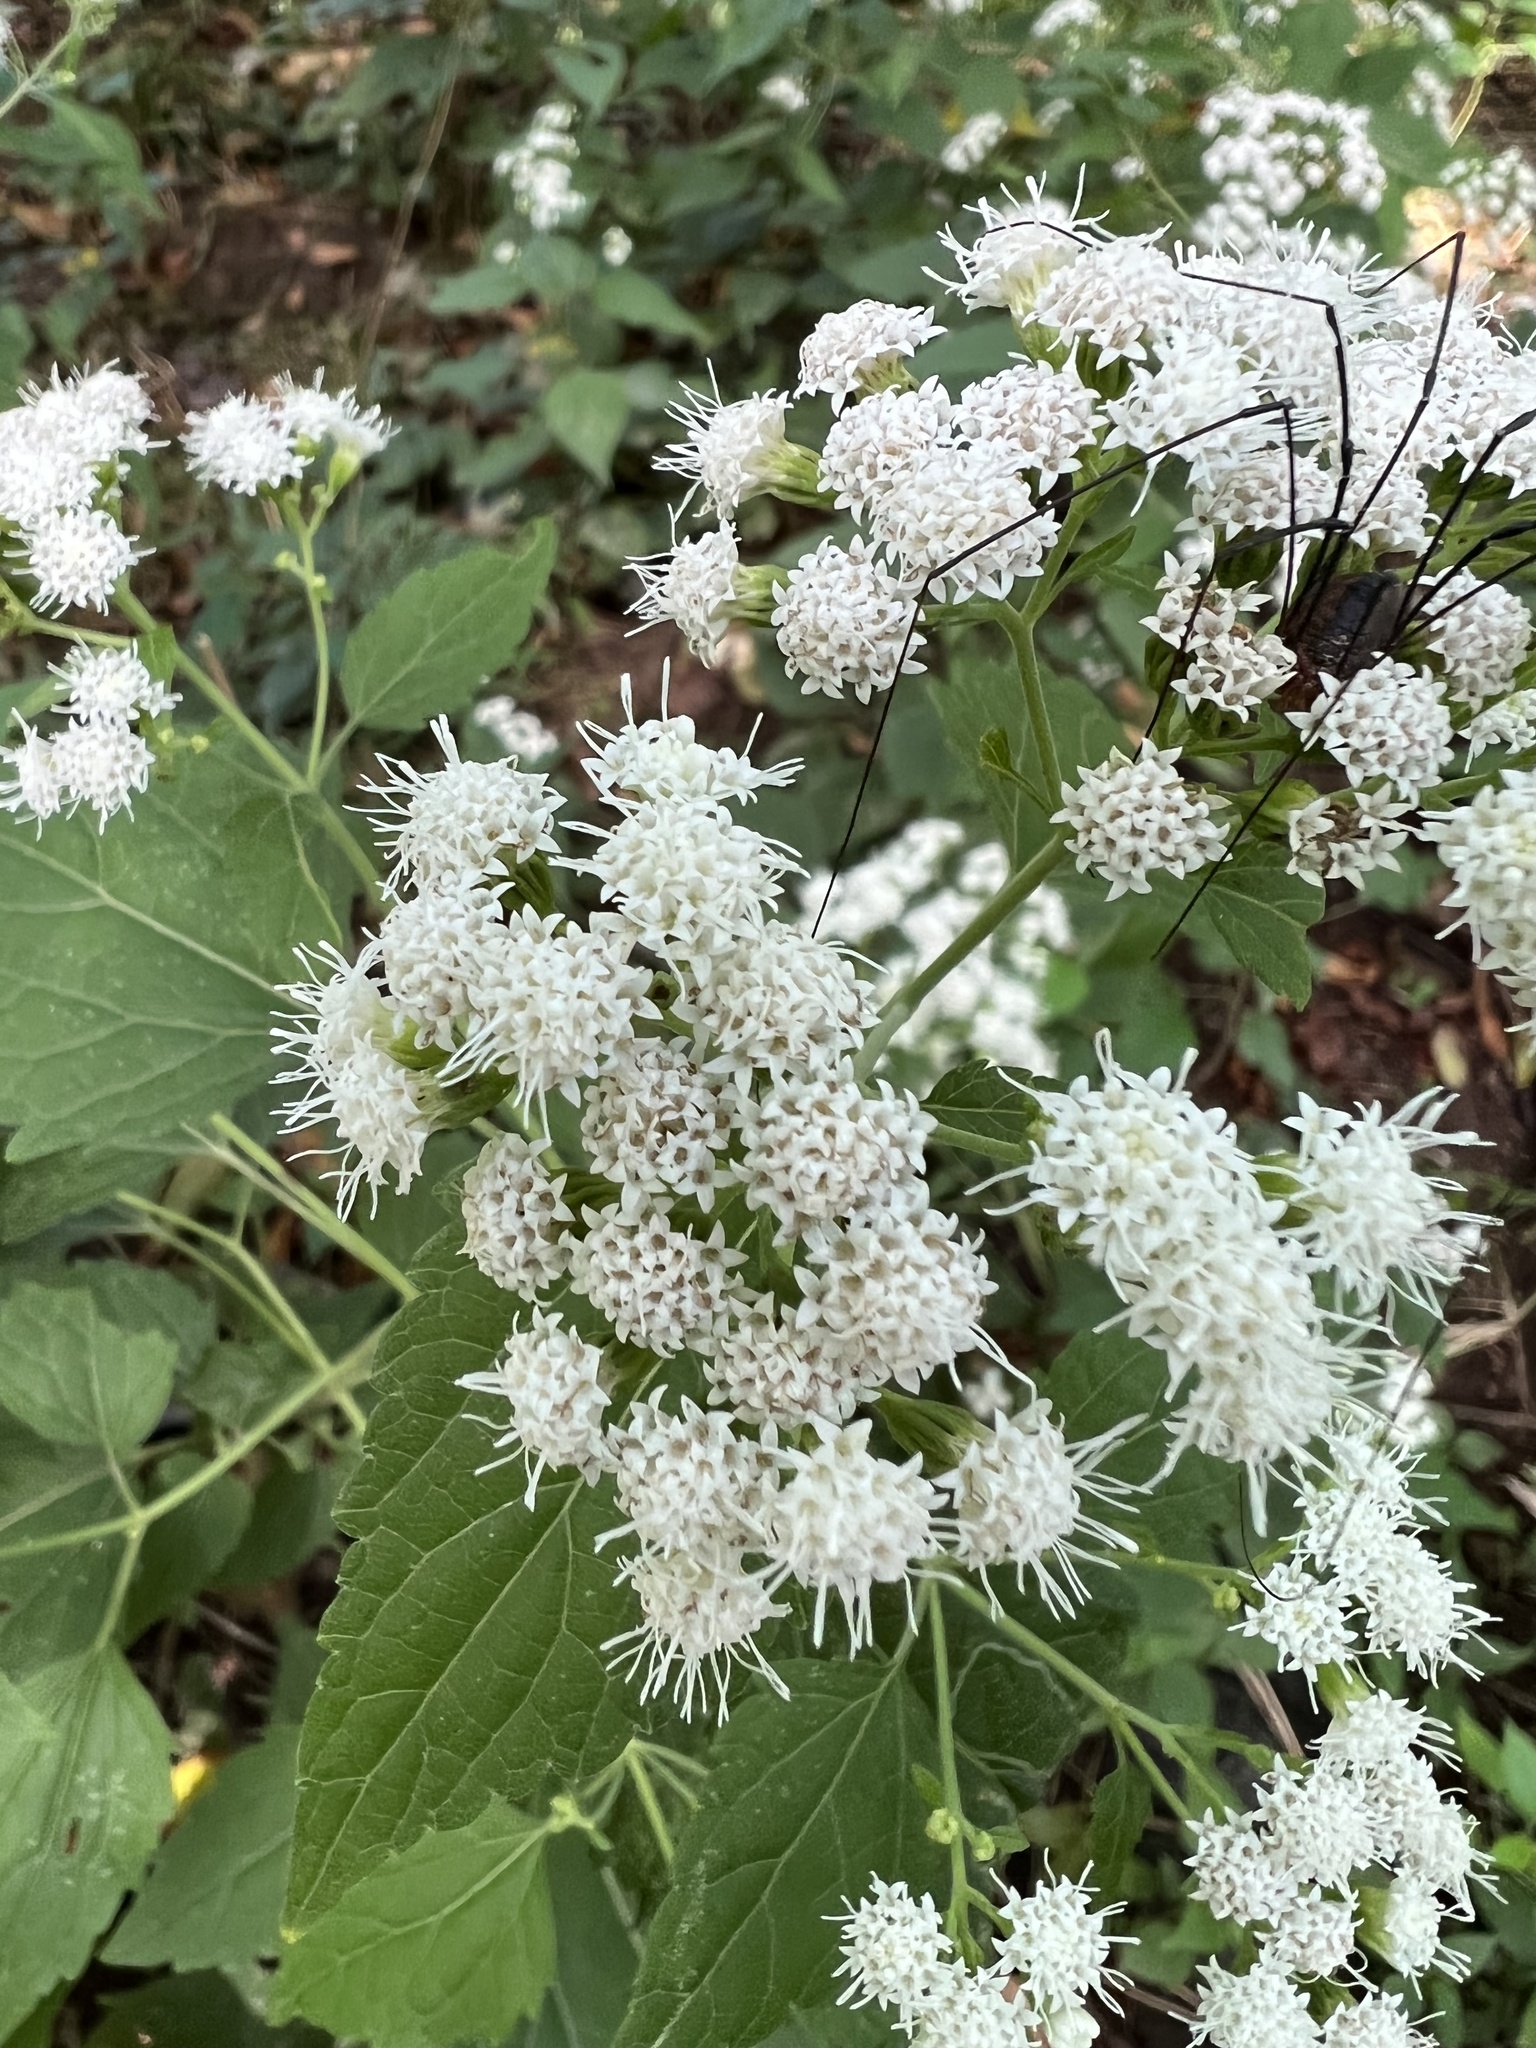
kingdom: Plantae
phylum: Tracheophyta
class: Magnoliopsida
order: Asterales
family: Asteraceae
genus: Ageratina
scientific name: Ageratina altissima
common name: White snakeroot
